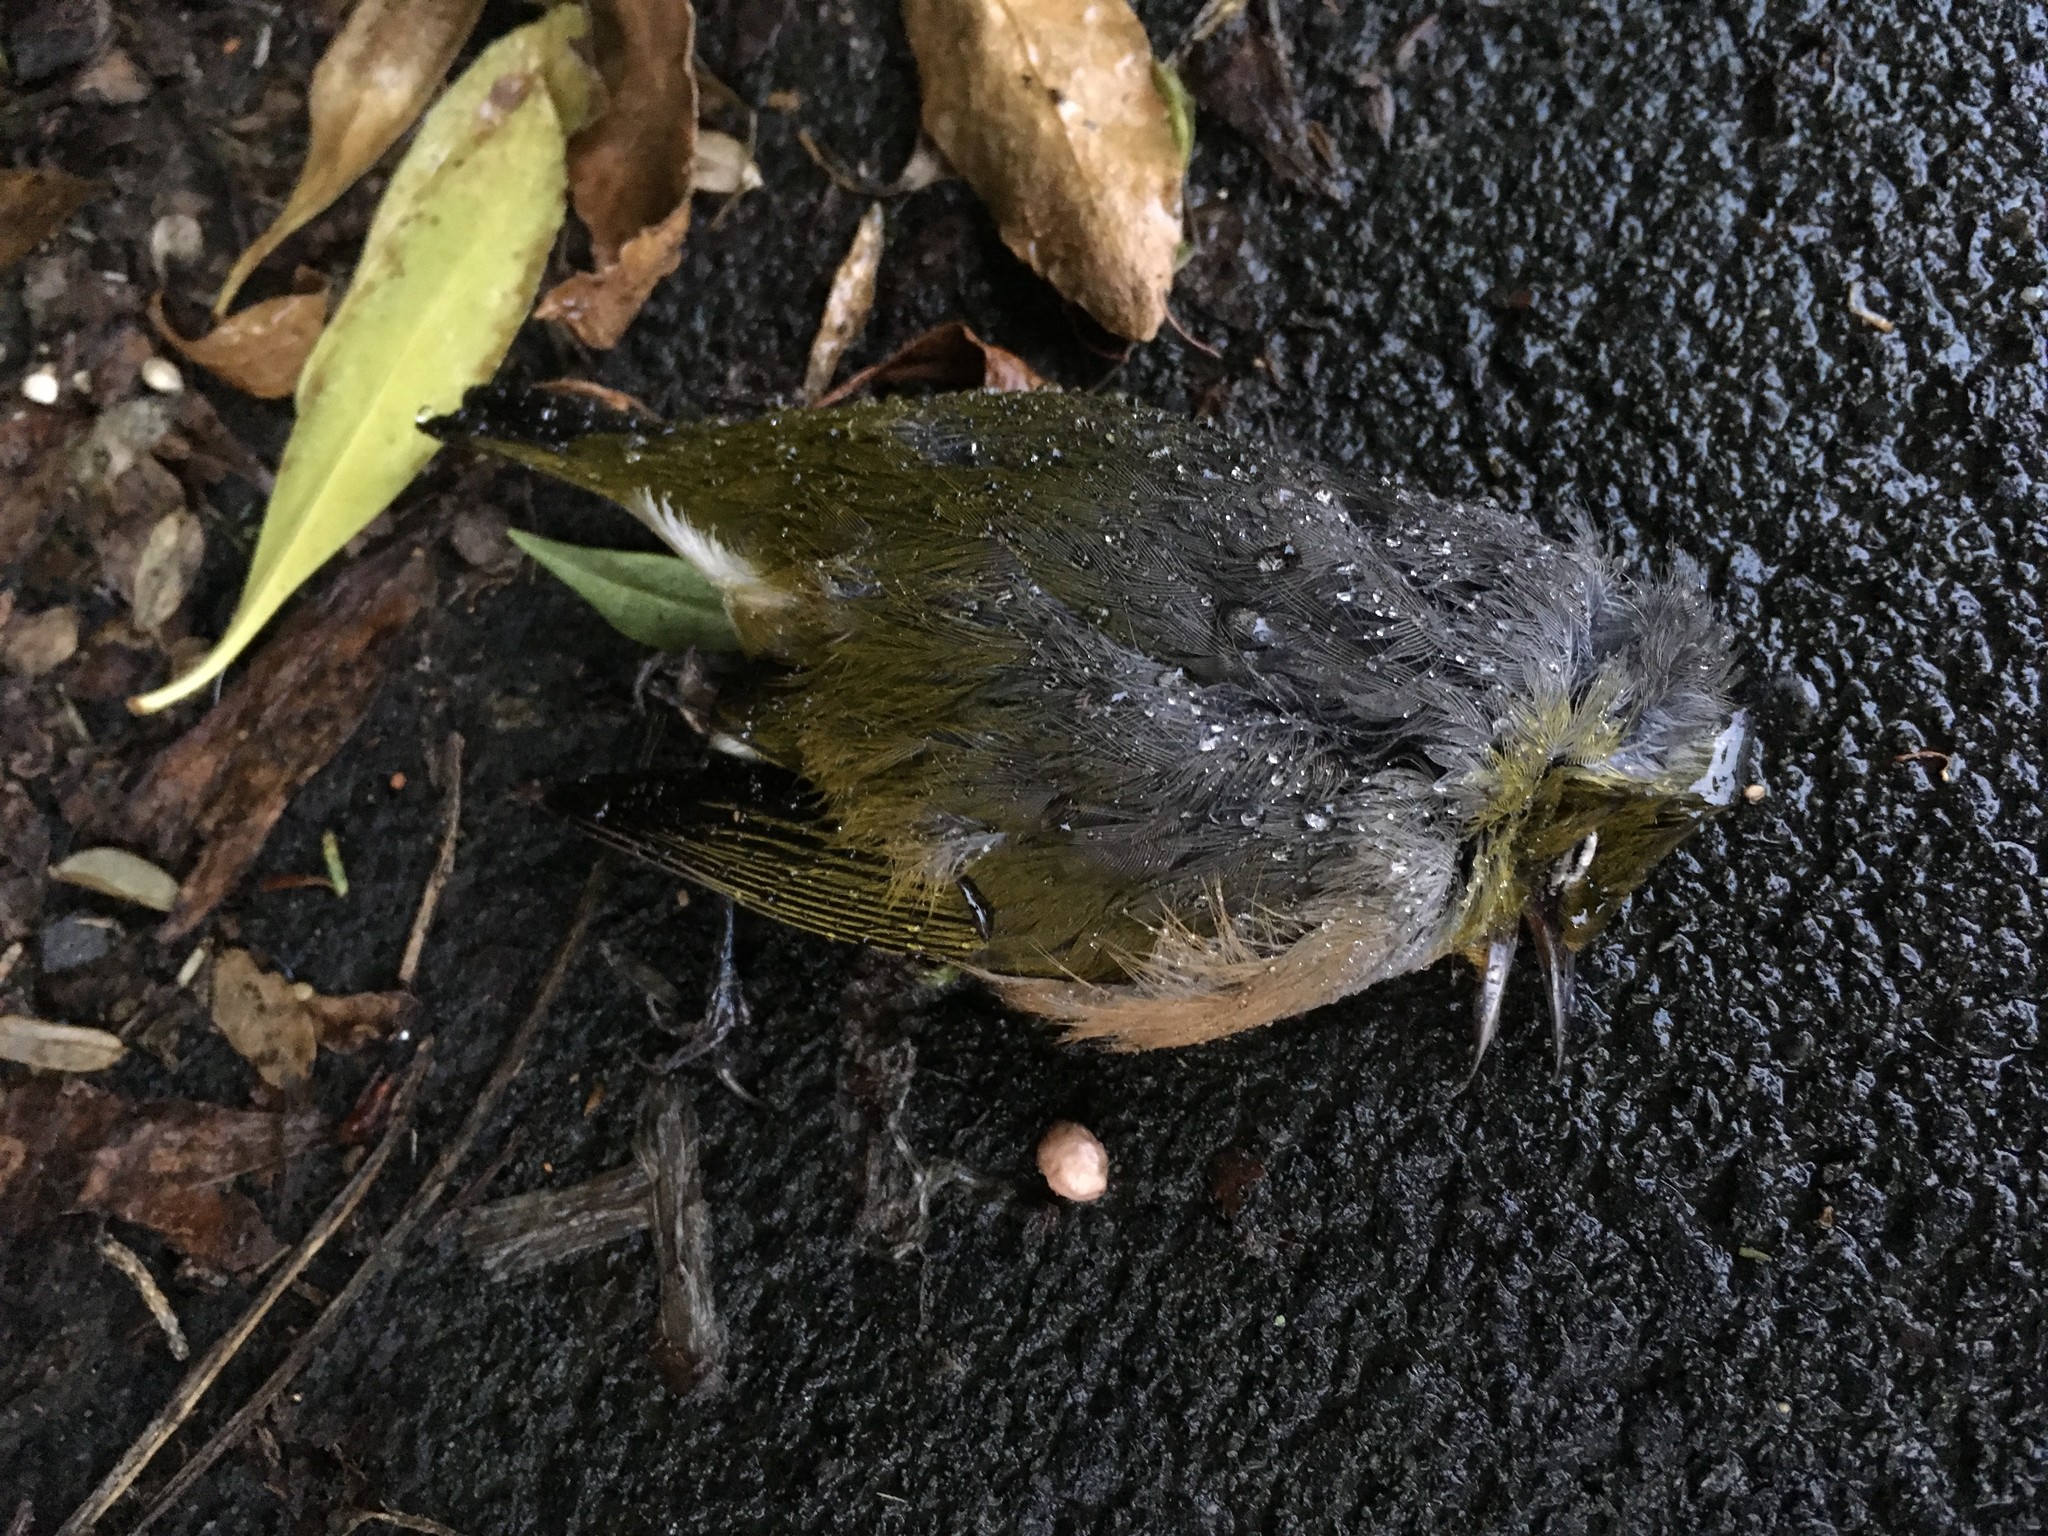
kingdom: Animalia
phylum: Chordata
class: Aves
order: Passeriformes
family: Zosteropidae
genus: Zosterops
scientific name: Zosterops lateralis
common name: Silvereye
